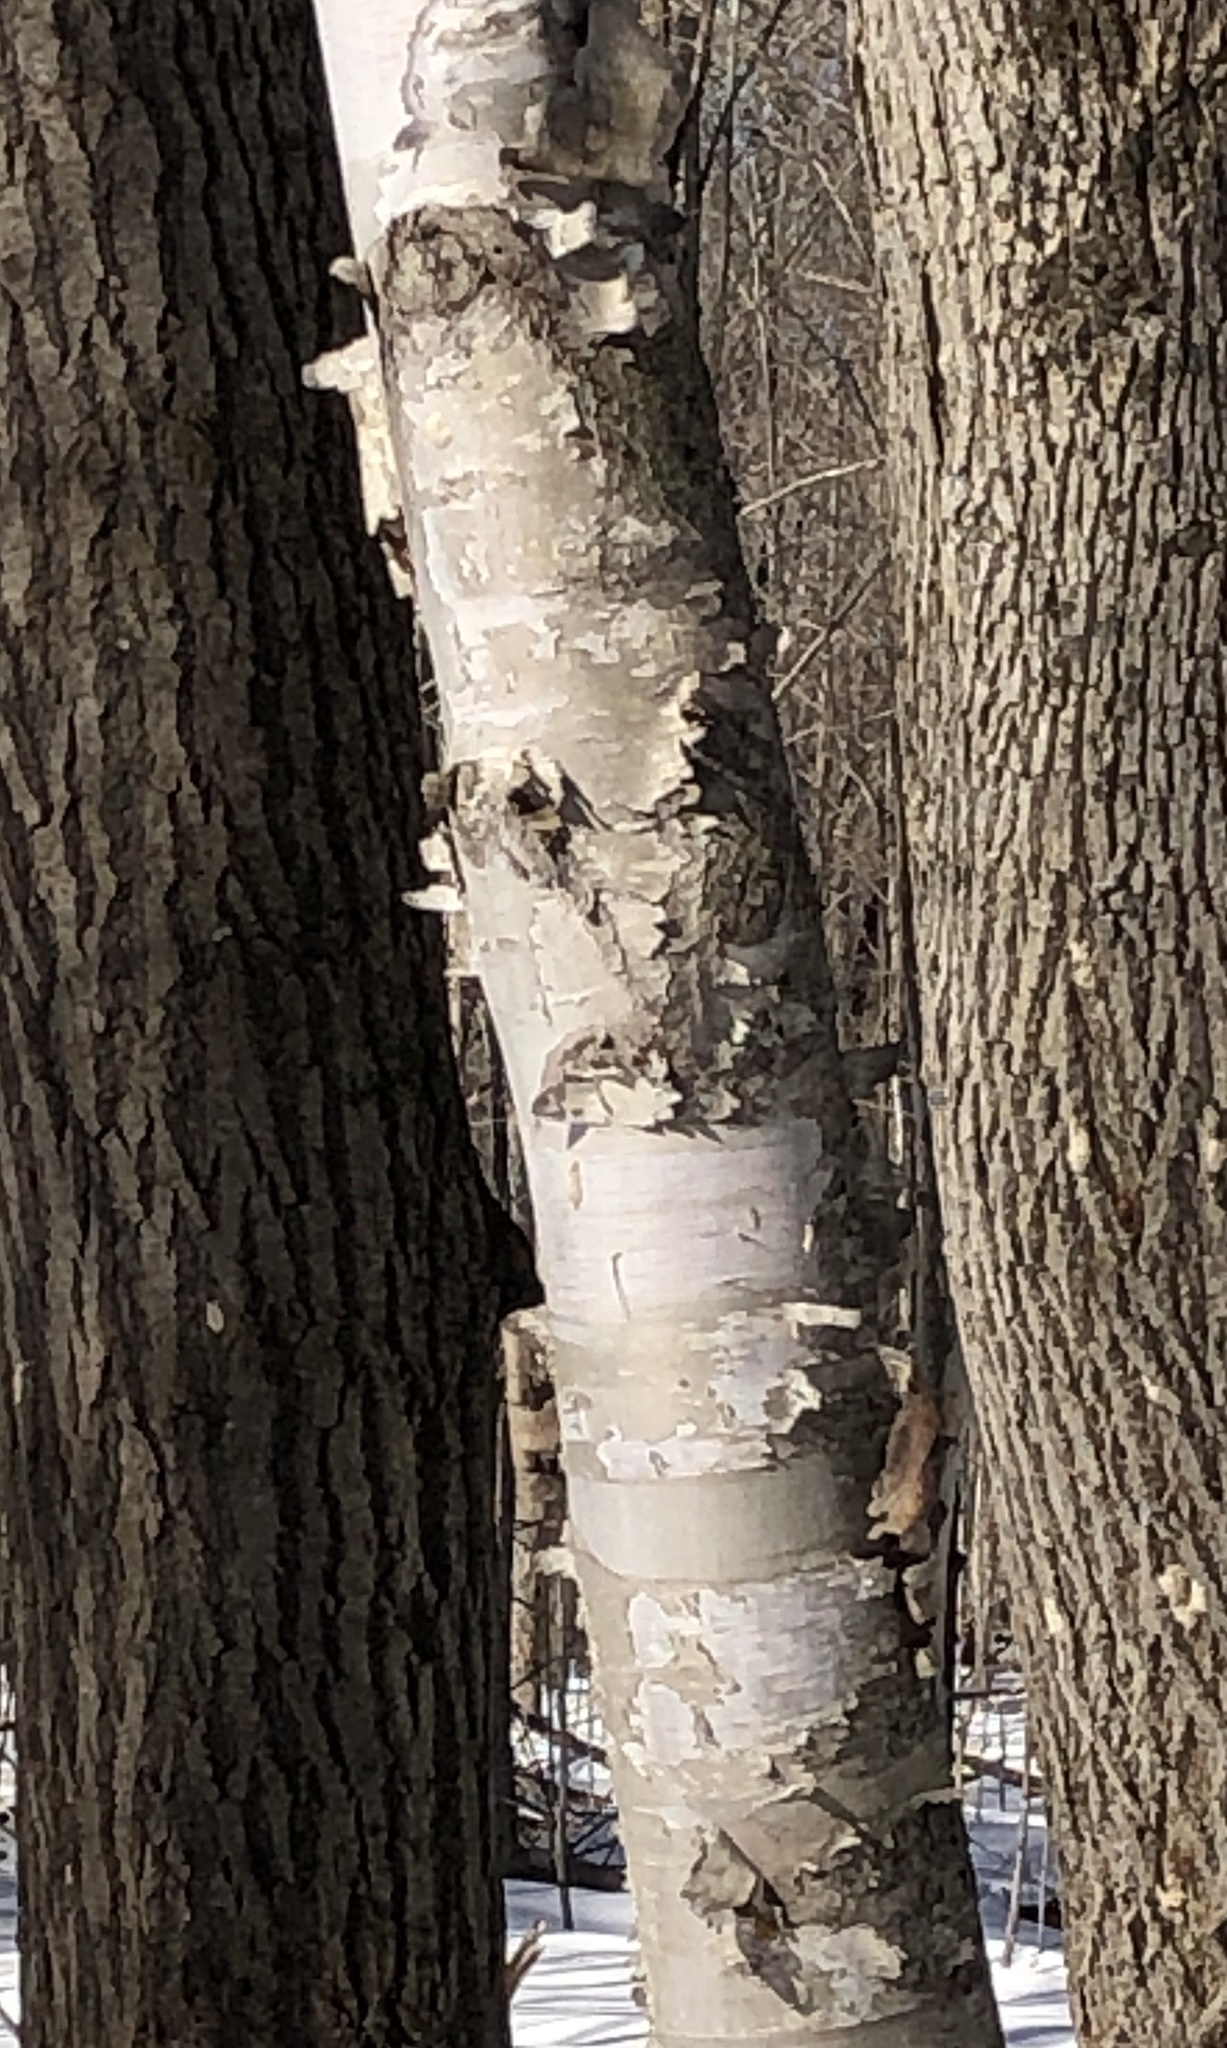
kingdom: Plantae
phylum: Tracheophyta
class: Magnoliopsida
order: Fagales
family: Betulaceae
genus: Betula
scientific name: Betula papyrifera
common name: Paper birch
